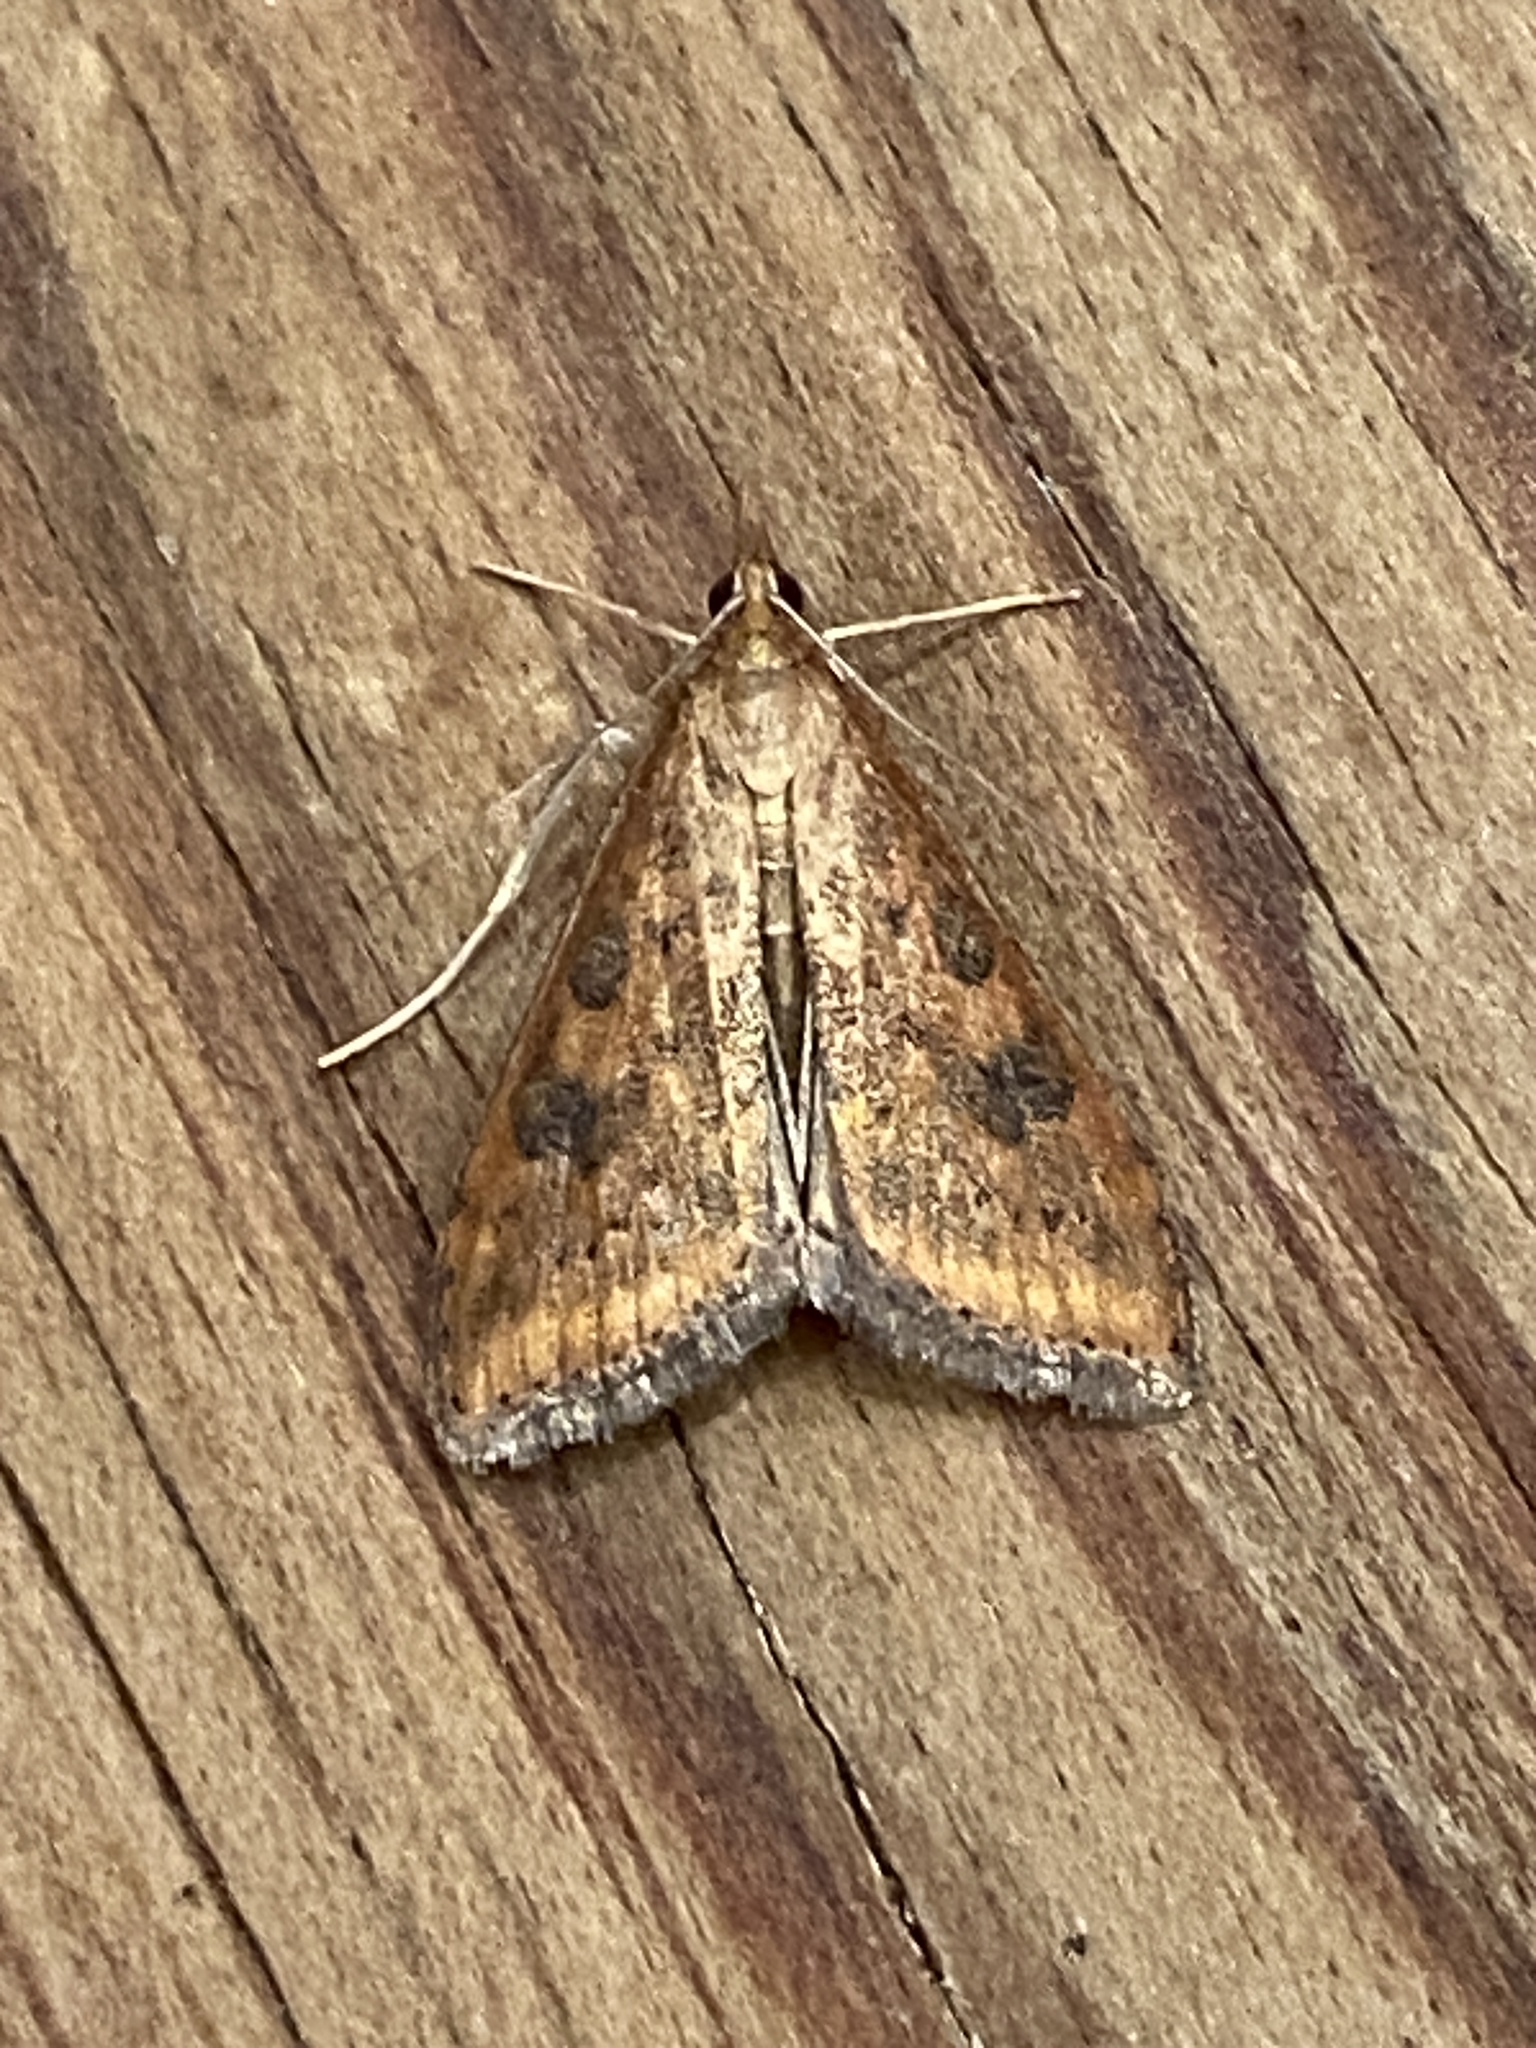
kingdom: Animalia
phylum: Arthropoda
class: Insecta
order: Lepidoptera
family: Crambidae
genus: Udea
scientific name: Udea ferrugalis
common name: Rusty dot
